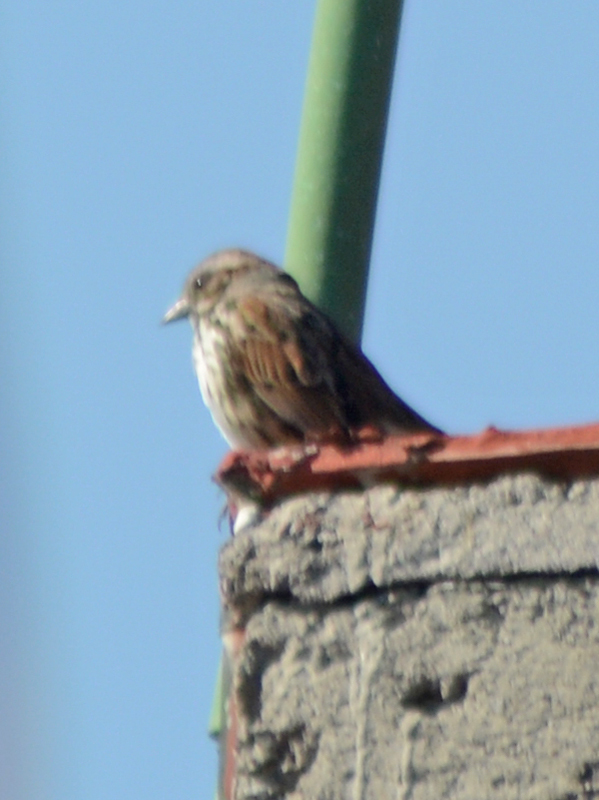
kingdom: Animalia
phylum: Chordata
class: Aves
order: Passeriformes
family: Passerellidae
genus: Melospiza
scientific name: Melospiza melodia
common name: Song sparrow
